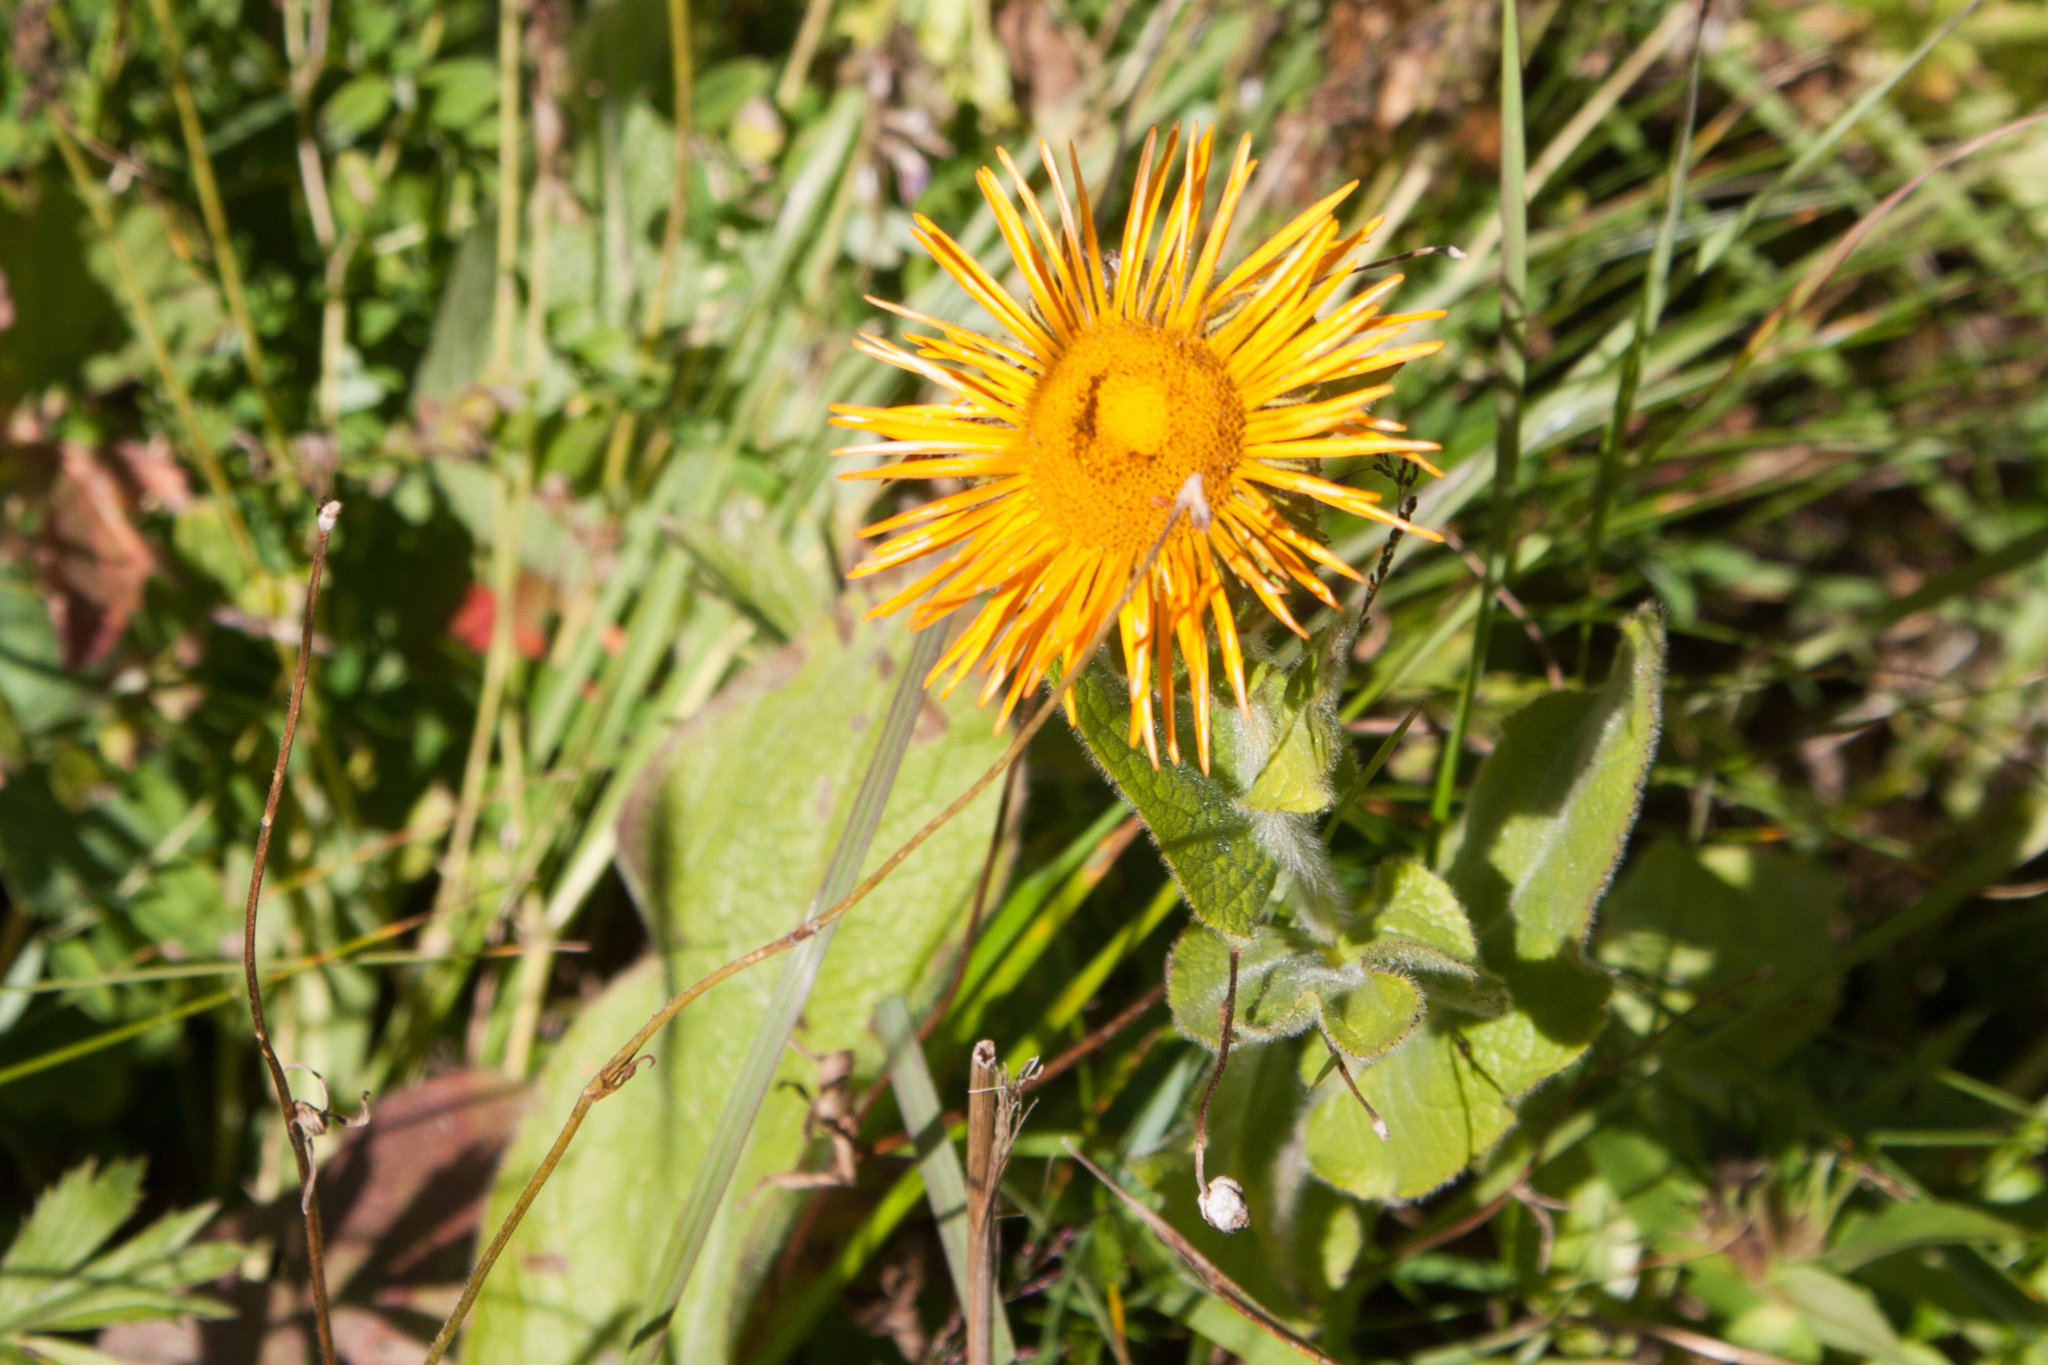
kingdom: Plantae
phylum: Tracheophyta
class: Magnoliopsida
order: Asterales
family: Asteraceae
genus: Pentanema
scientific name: Pentanema orientale
